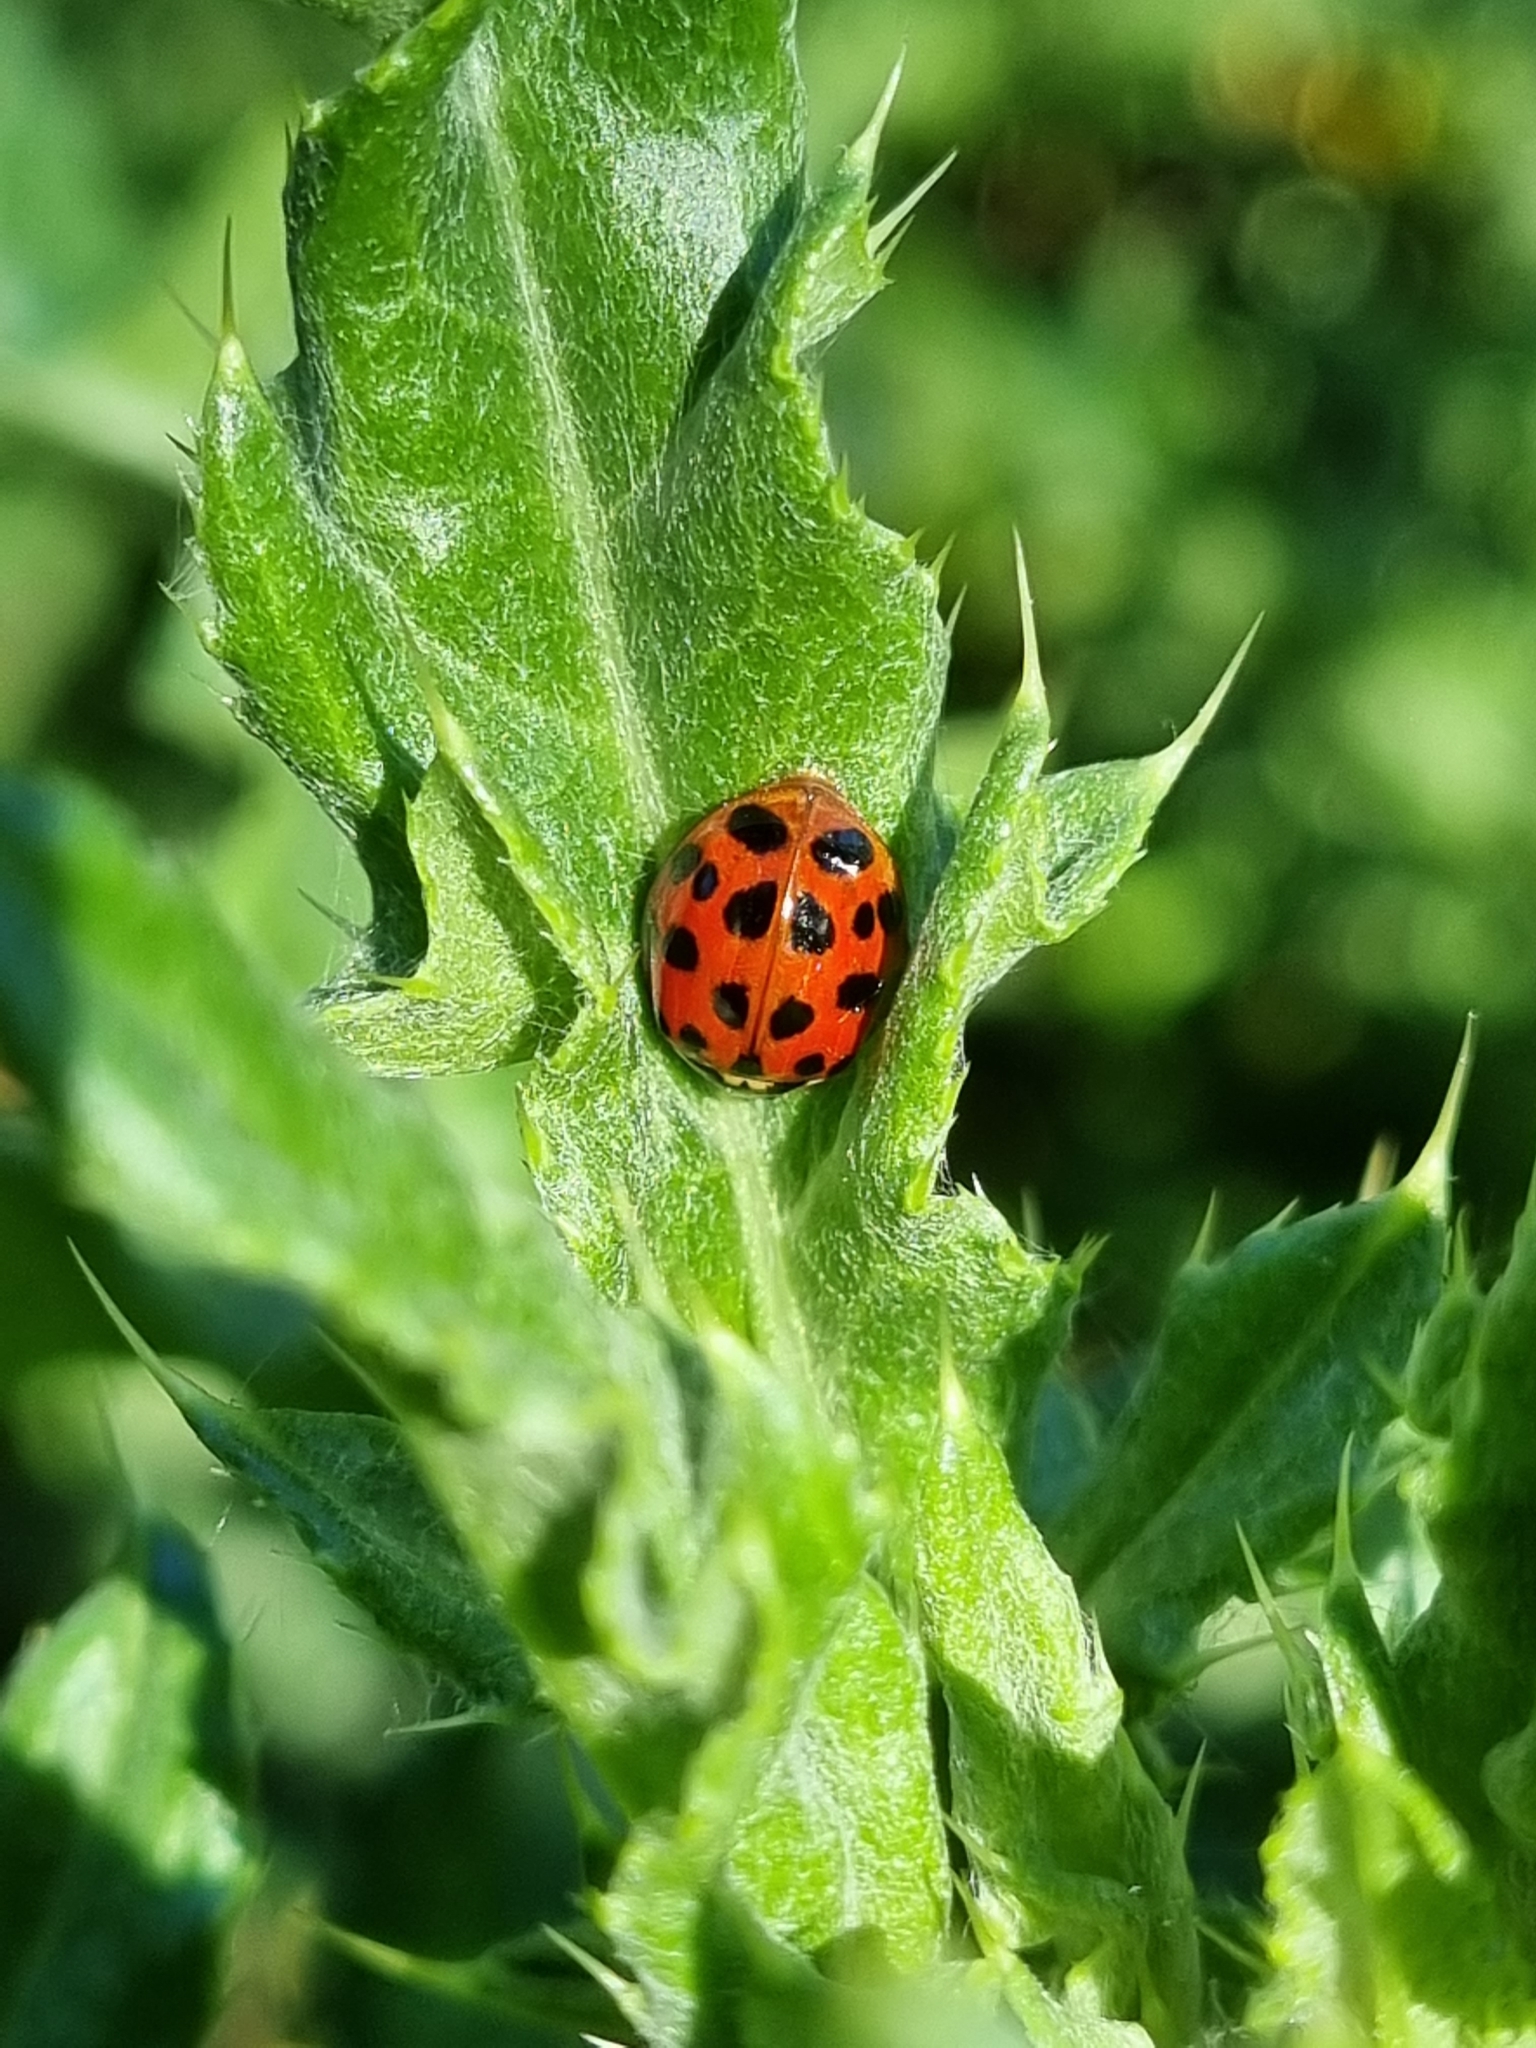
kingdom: Animalia
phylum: Arthropoda
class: Insecta
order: Coleoptera
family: Coccinellidae
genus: Harmonia
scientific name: Harmonia axyridis
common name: Harlequin ladybird
